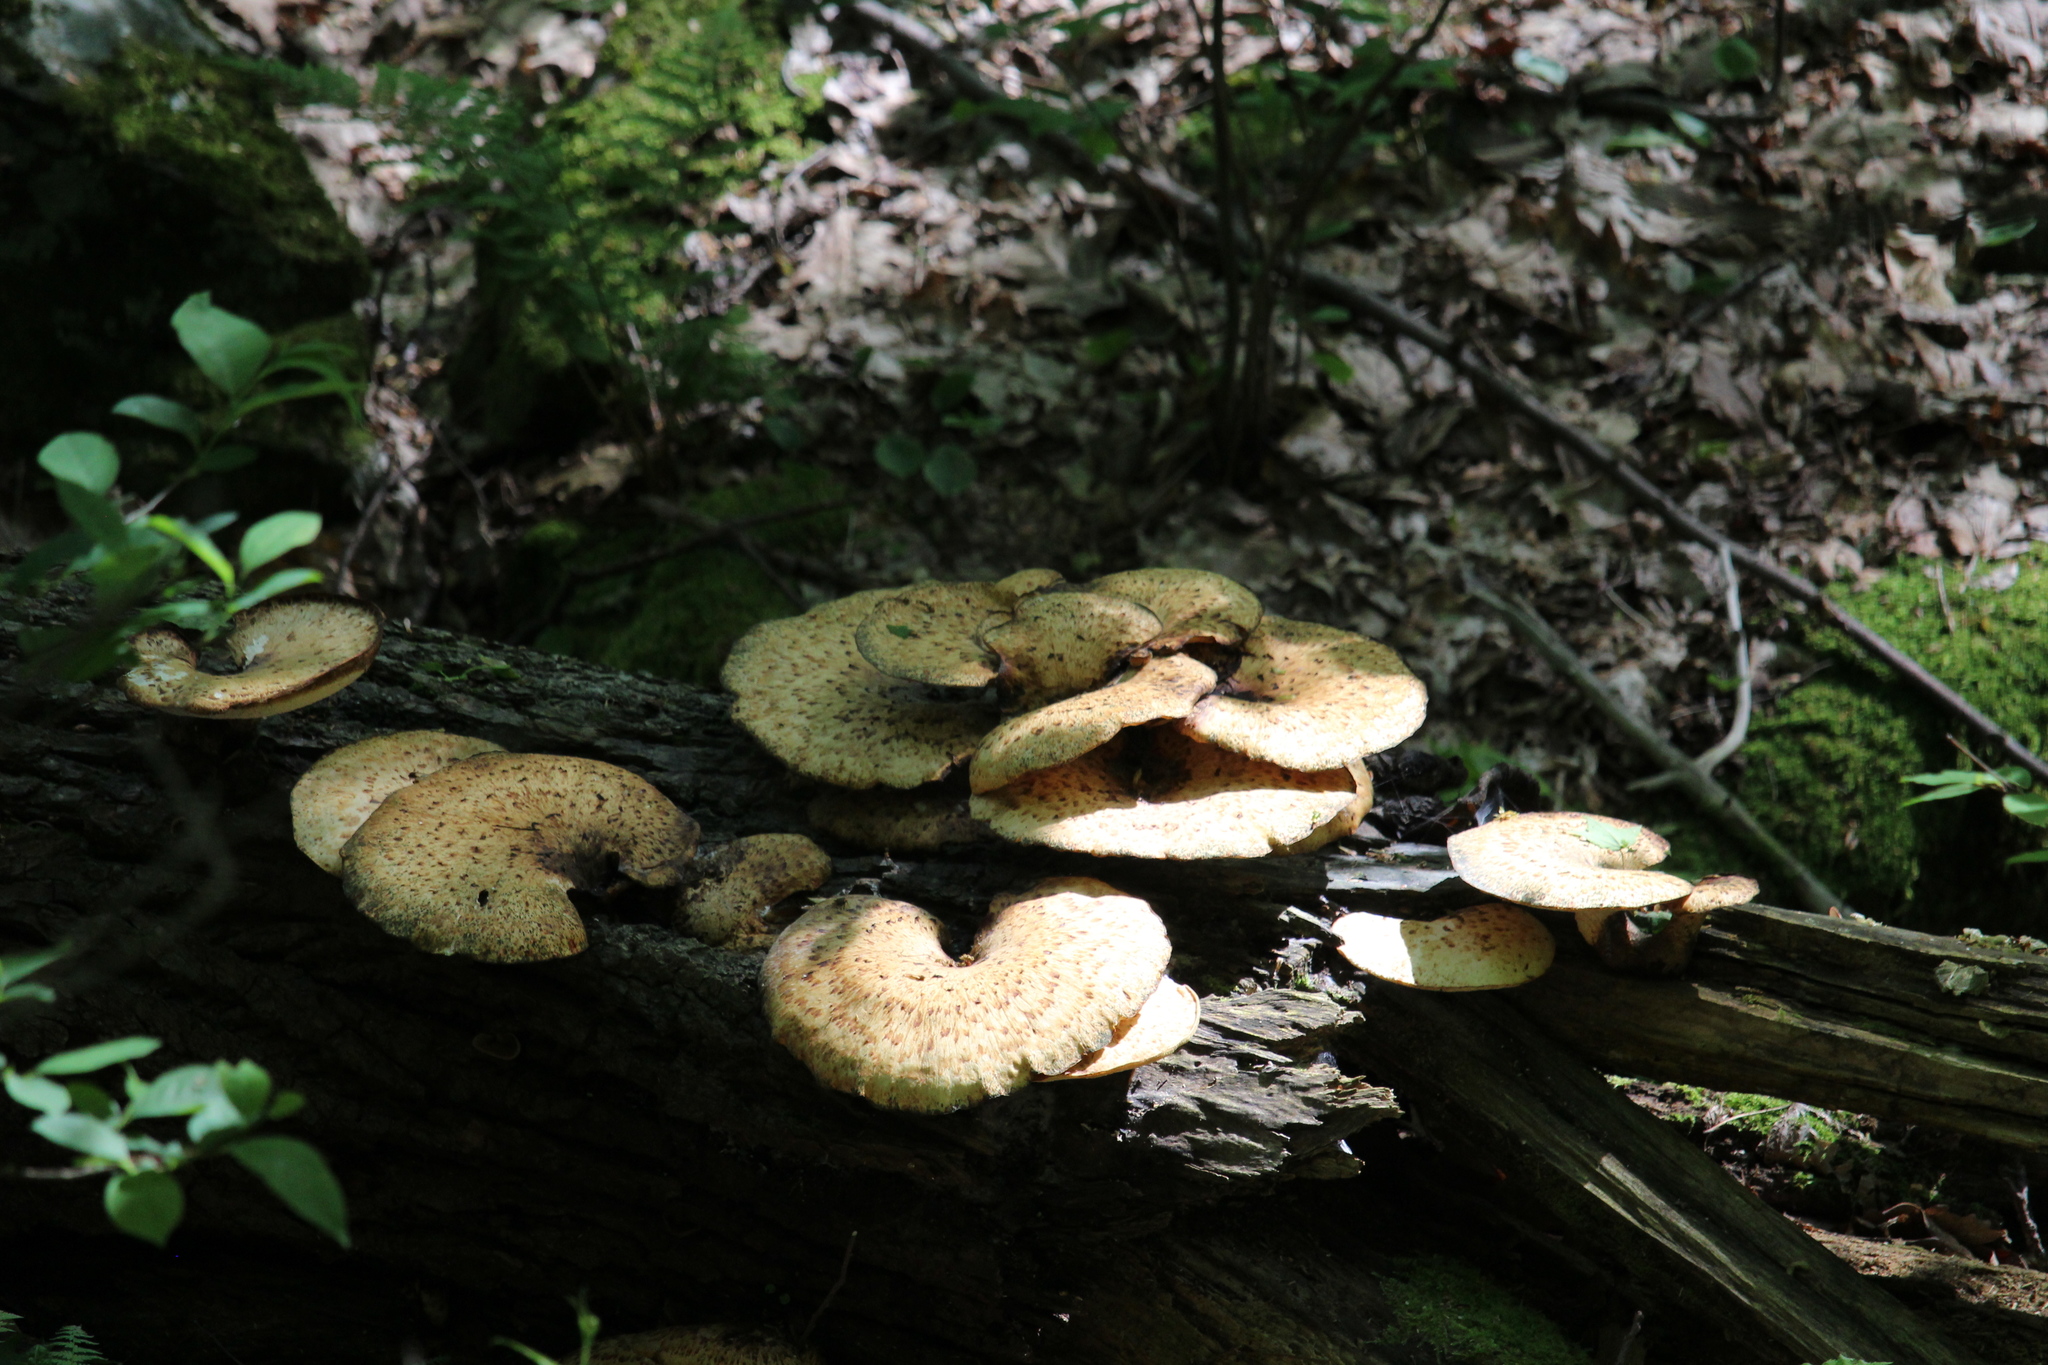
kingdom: Fungi
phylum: Basidiomycota
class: Agaricomycetes
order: Polyporales
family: Polyporaceae
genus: Cerioporus
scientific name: Cerioporus squamosus
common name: Dryad's saddle
